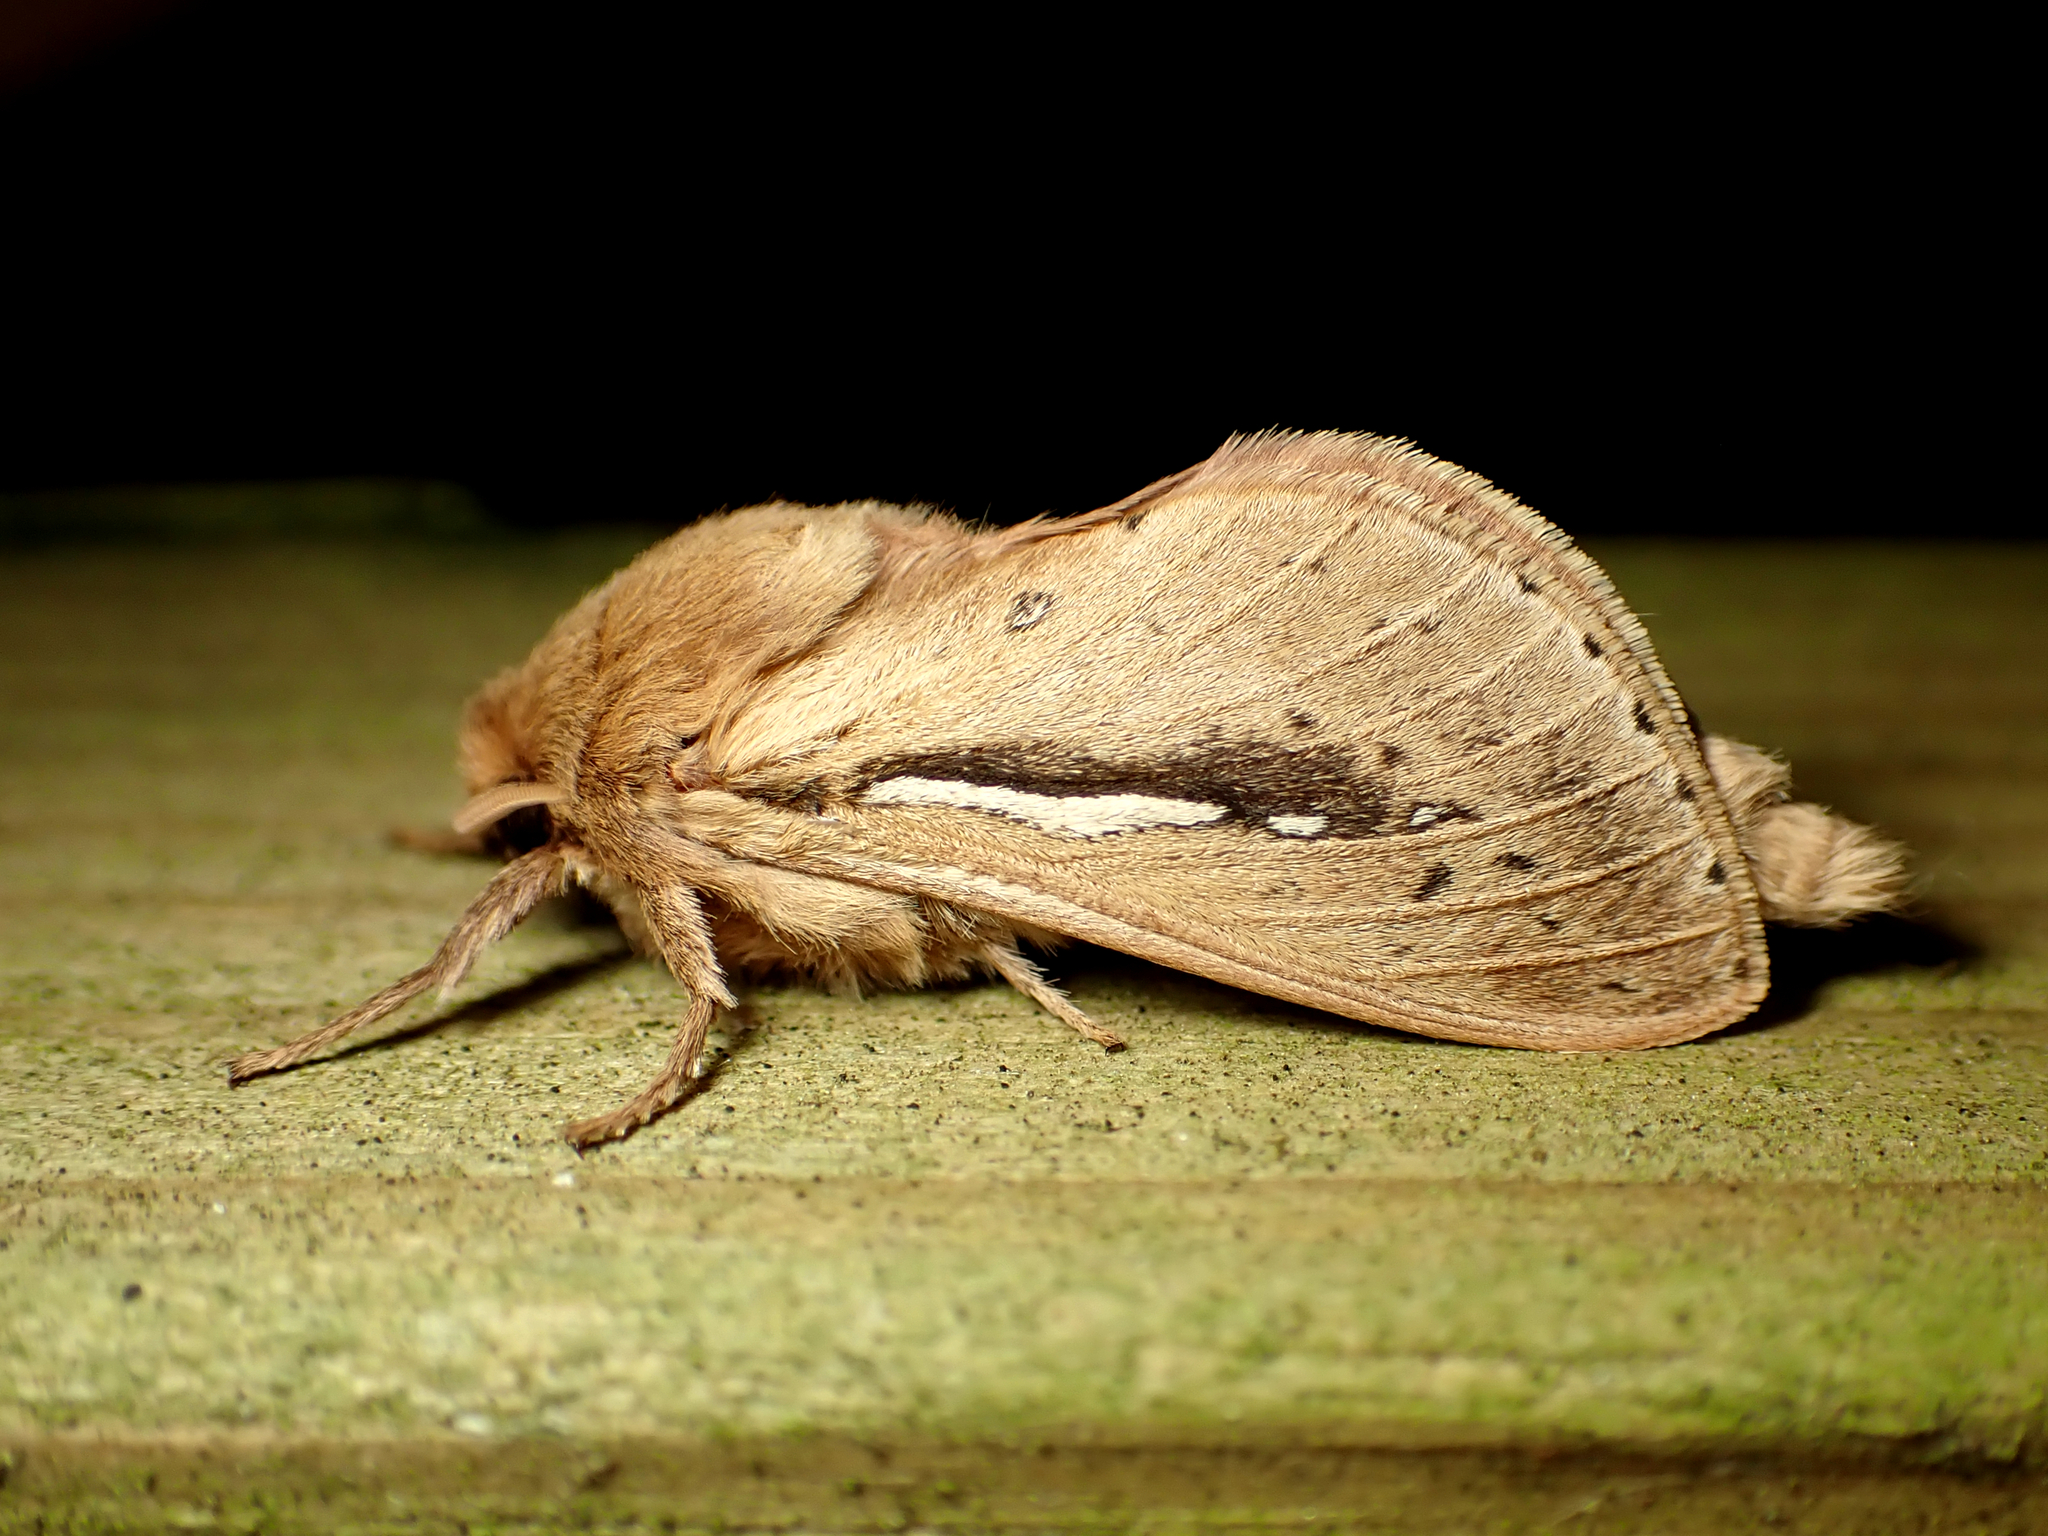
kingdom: Animalia
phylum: Arthropoda
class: Insecta
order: Lepidoptera
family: Hepialidae
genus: Wiseana
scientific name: Wiseana umbraculatus
